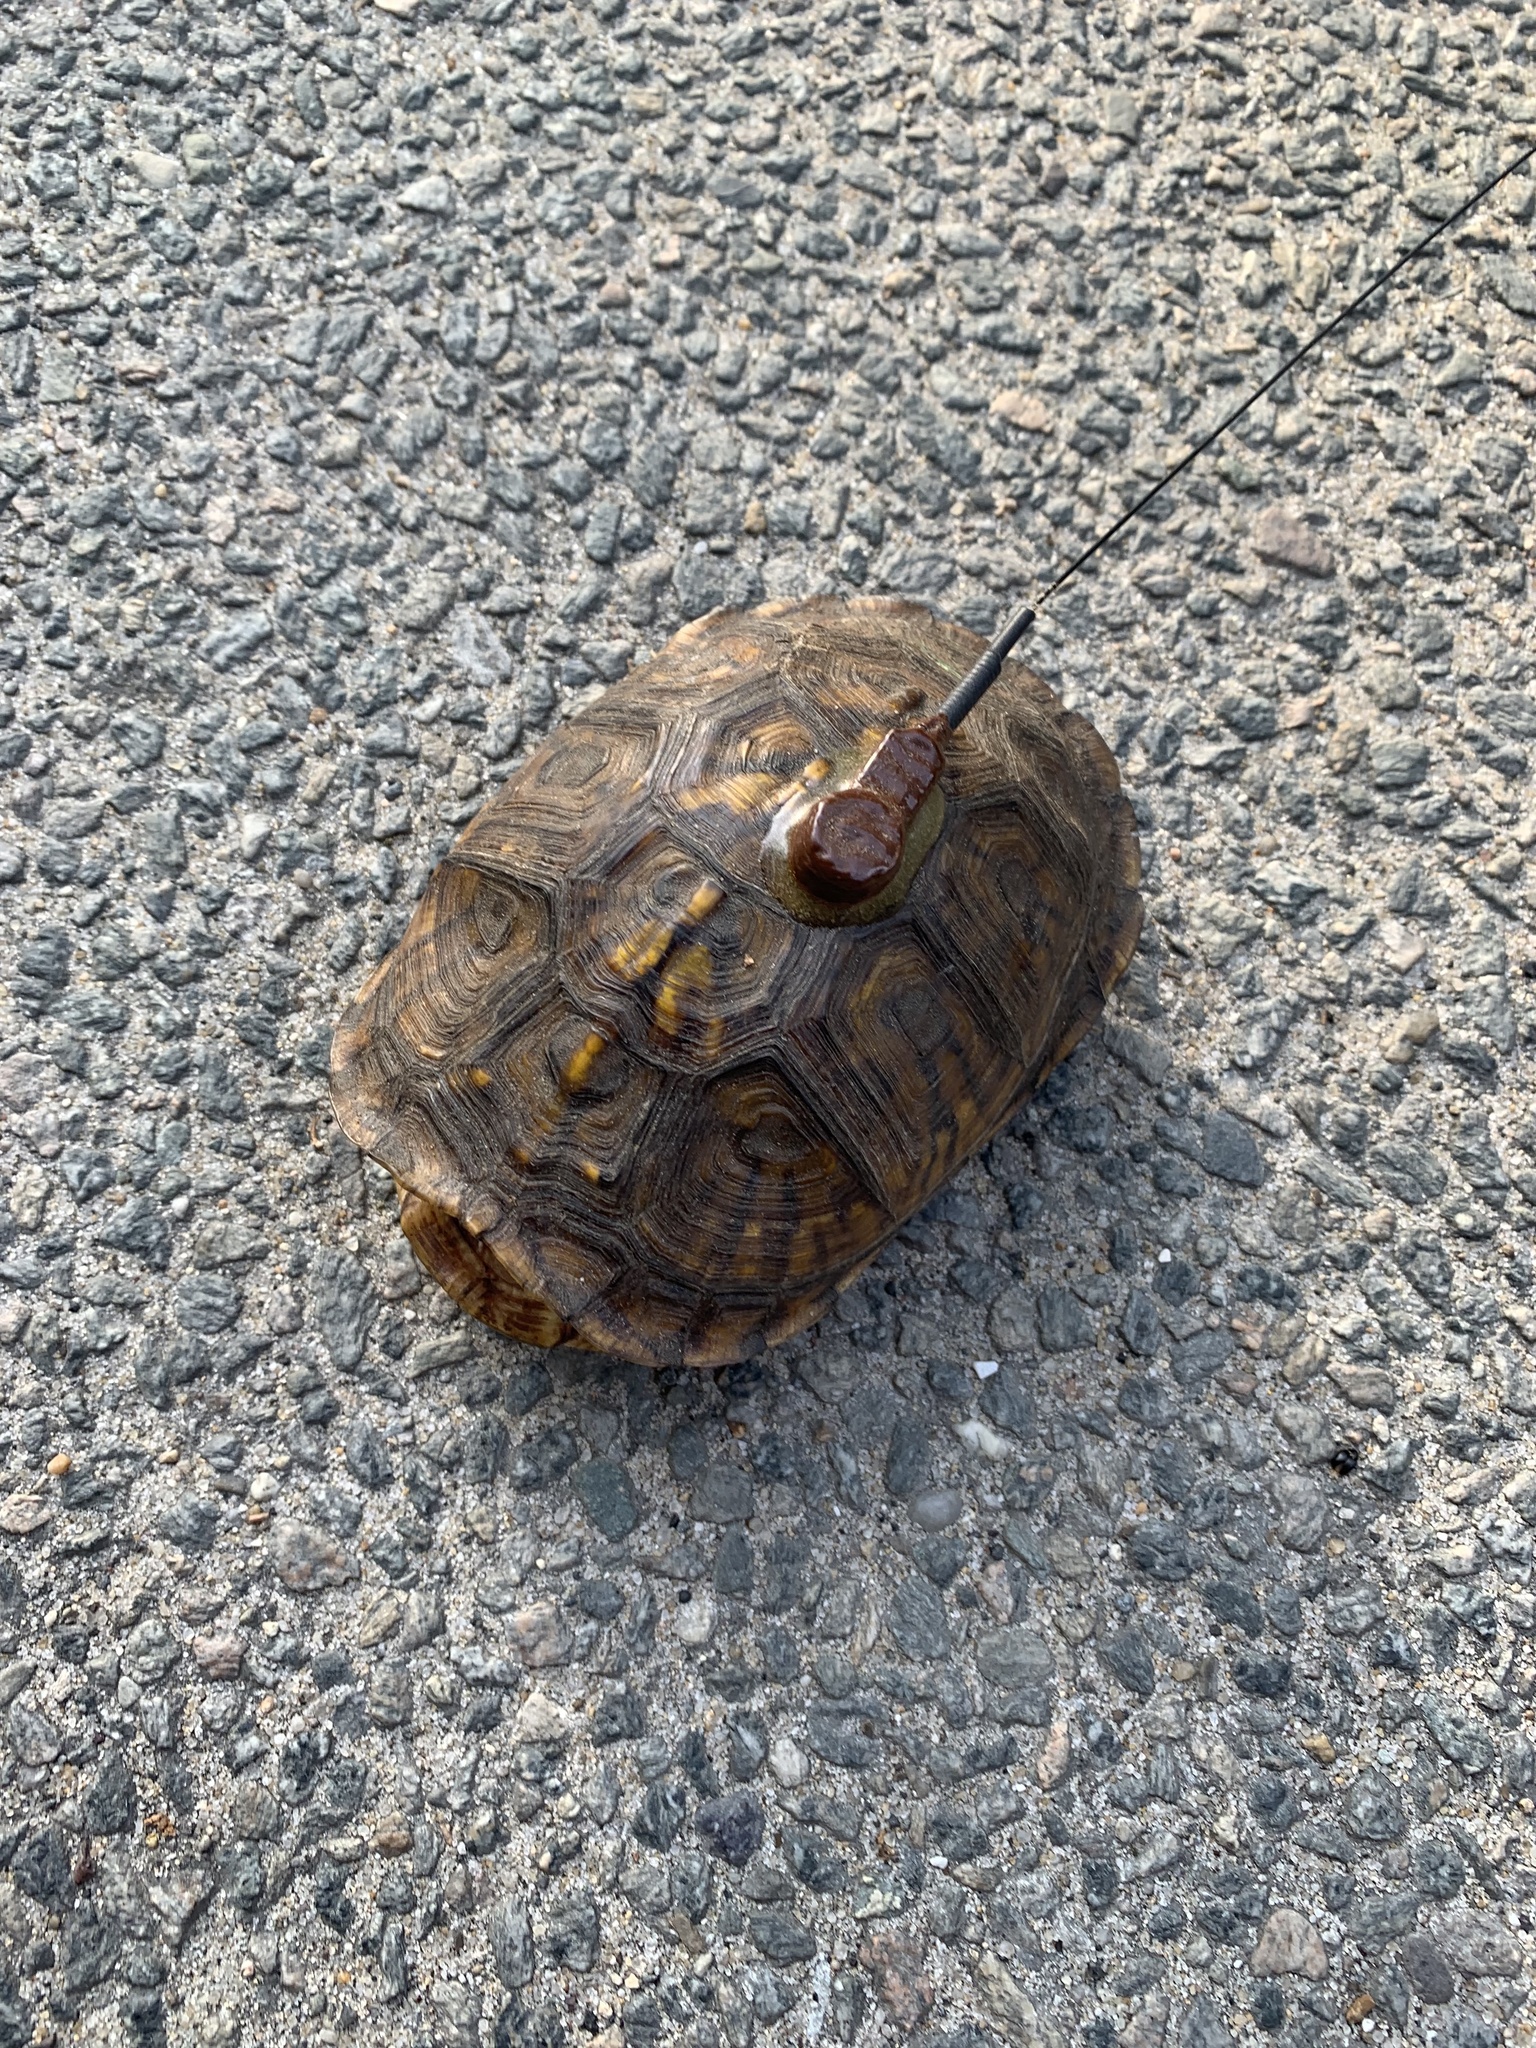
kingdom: Animalia
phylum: Chordata
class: Testudines
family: Emydidae
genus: Terrapene
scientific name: Terrapene carolina
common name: Common box turtle
